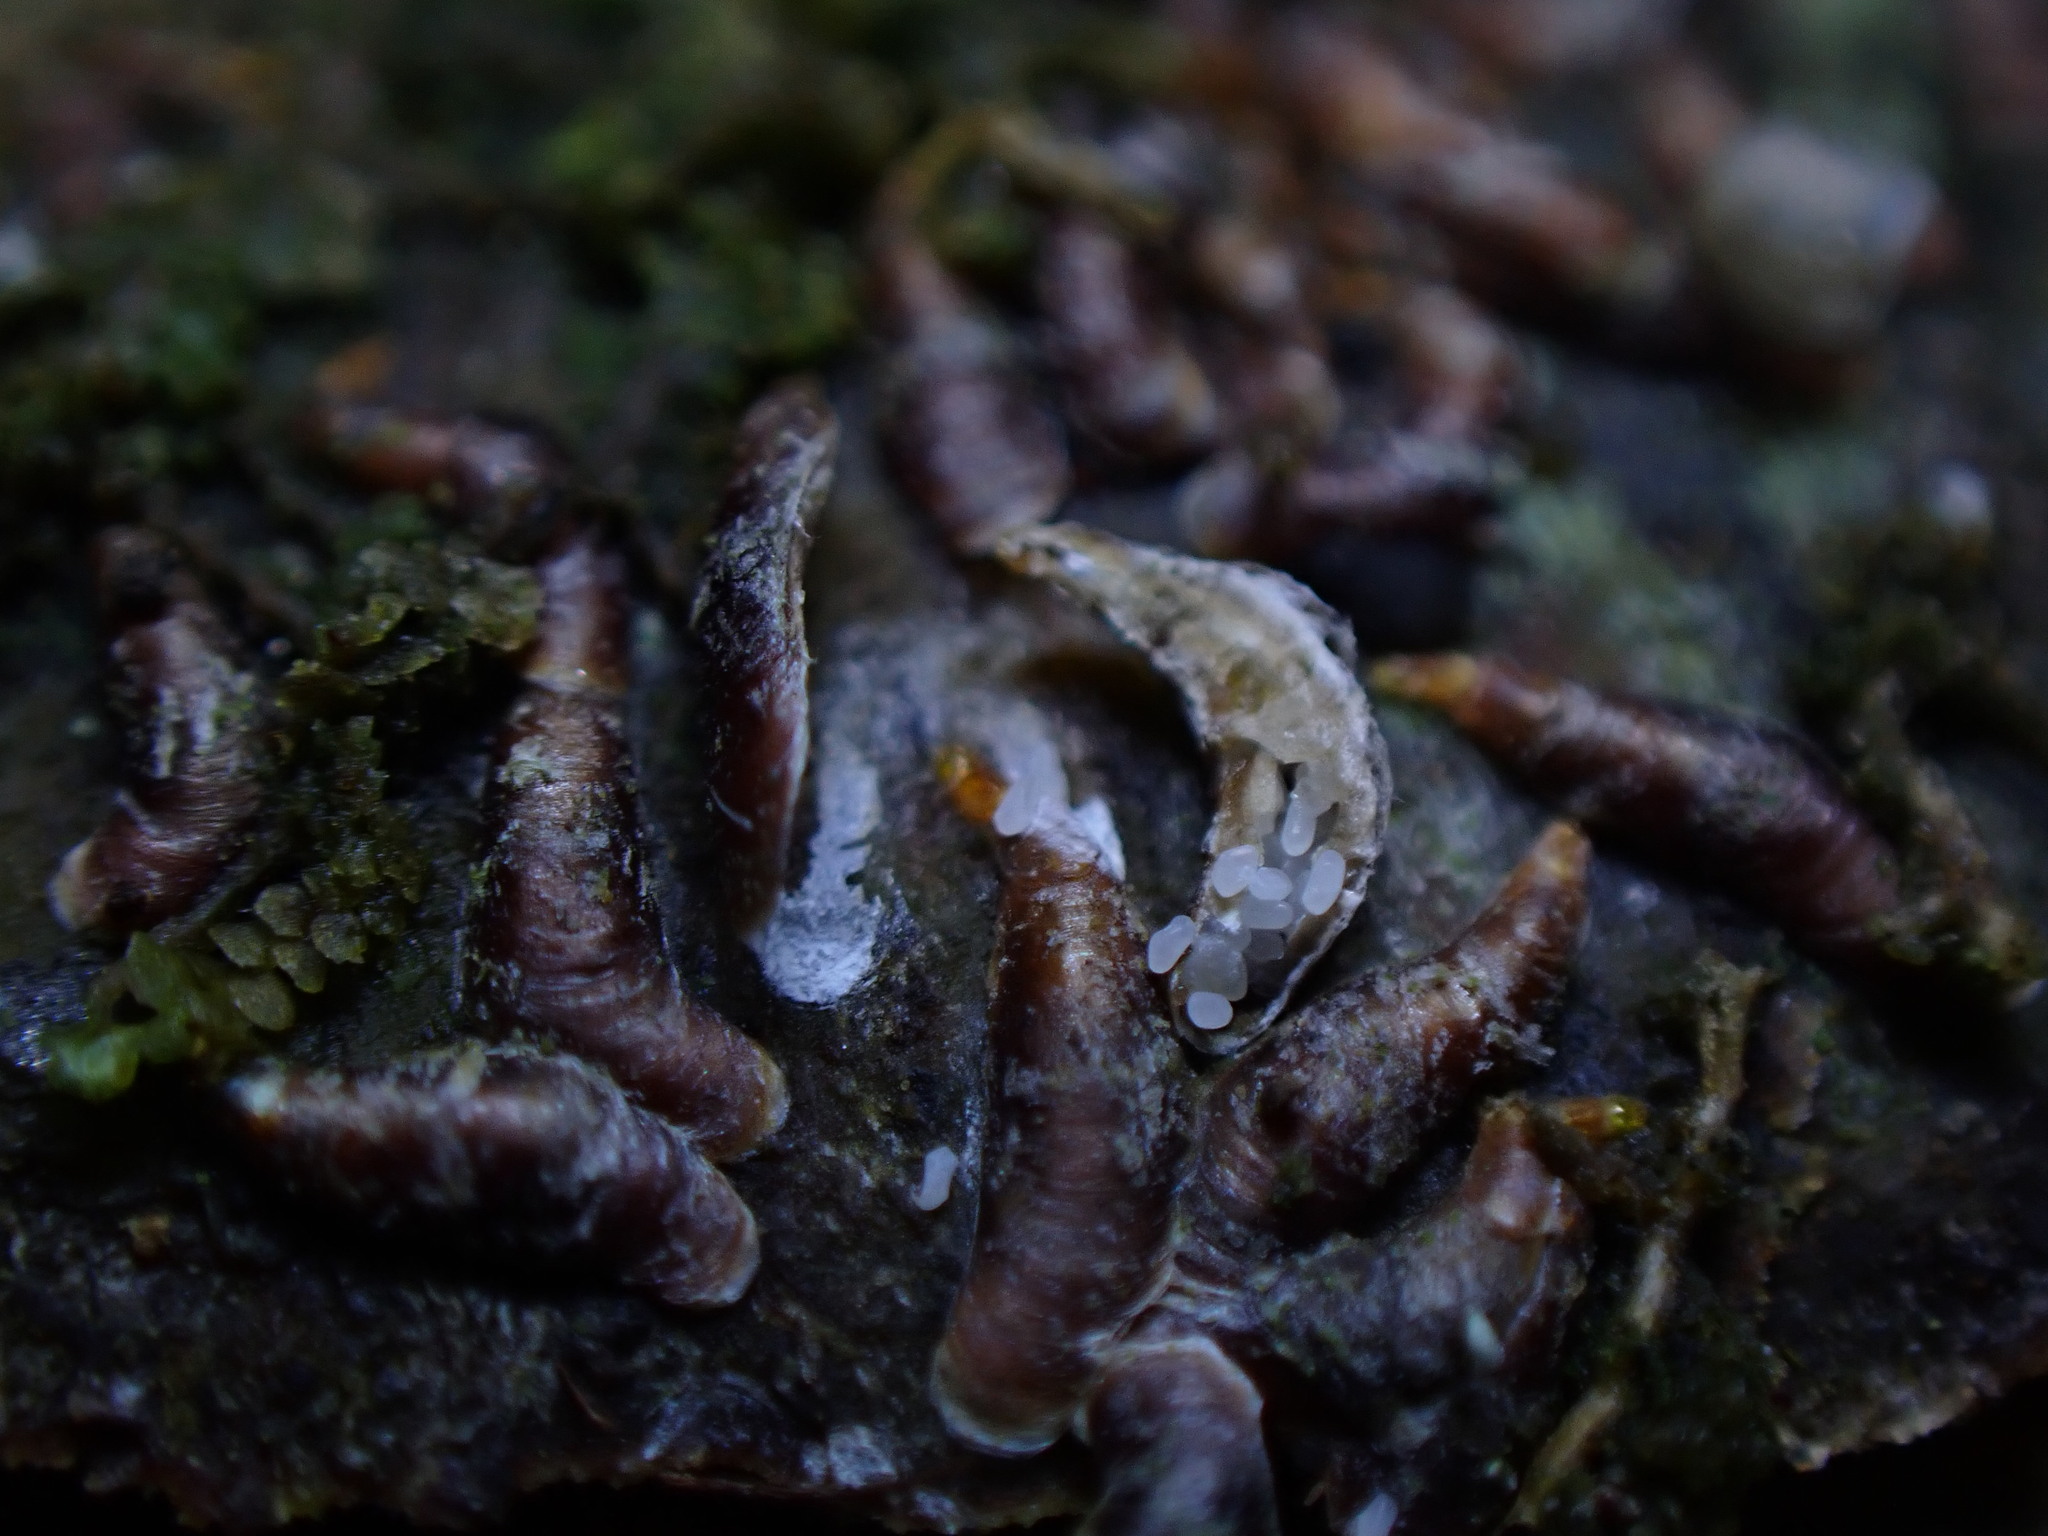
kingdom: Animalia
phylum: Arthropoda
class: Insecta
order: Hemiptera
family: Diaspididae
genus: Lepidosaphes
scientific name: Lepidosaphes ulmi
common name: Oystershell scale
